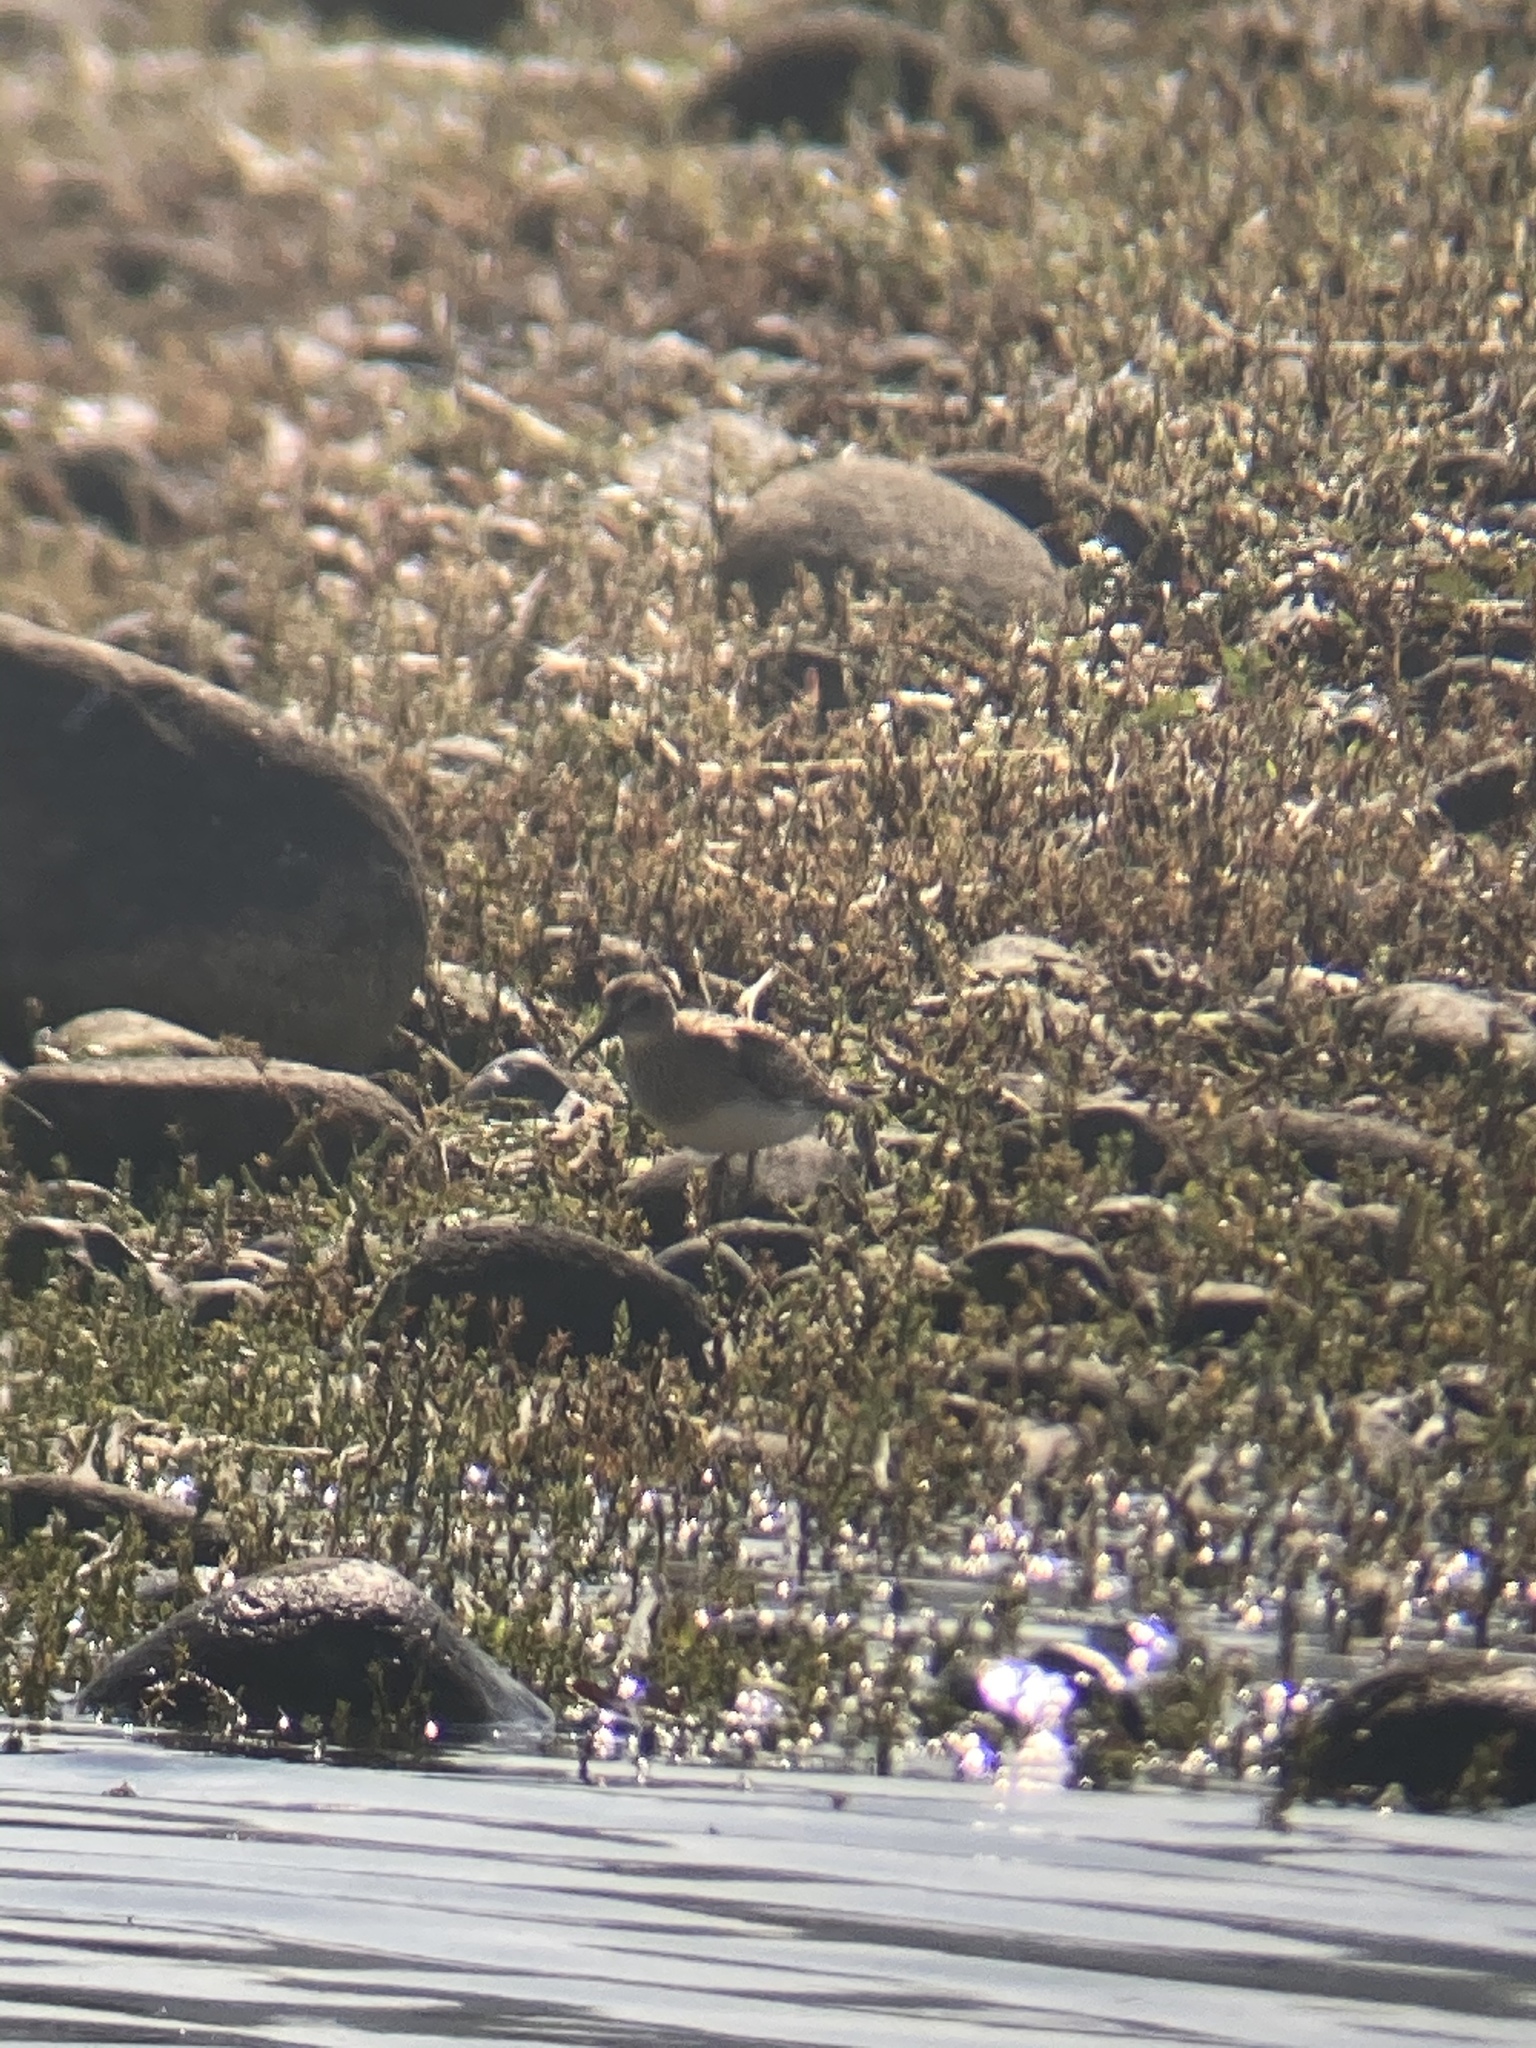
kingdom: Animalia
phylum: Chordata
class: Aves
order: Charadriiformes
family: Scolopacidae
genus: Calidris
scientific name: Calidris melanotos
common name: Pectoral sandpiper
